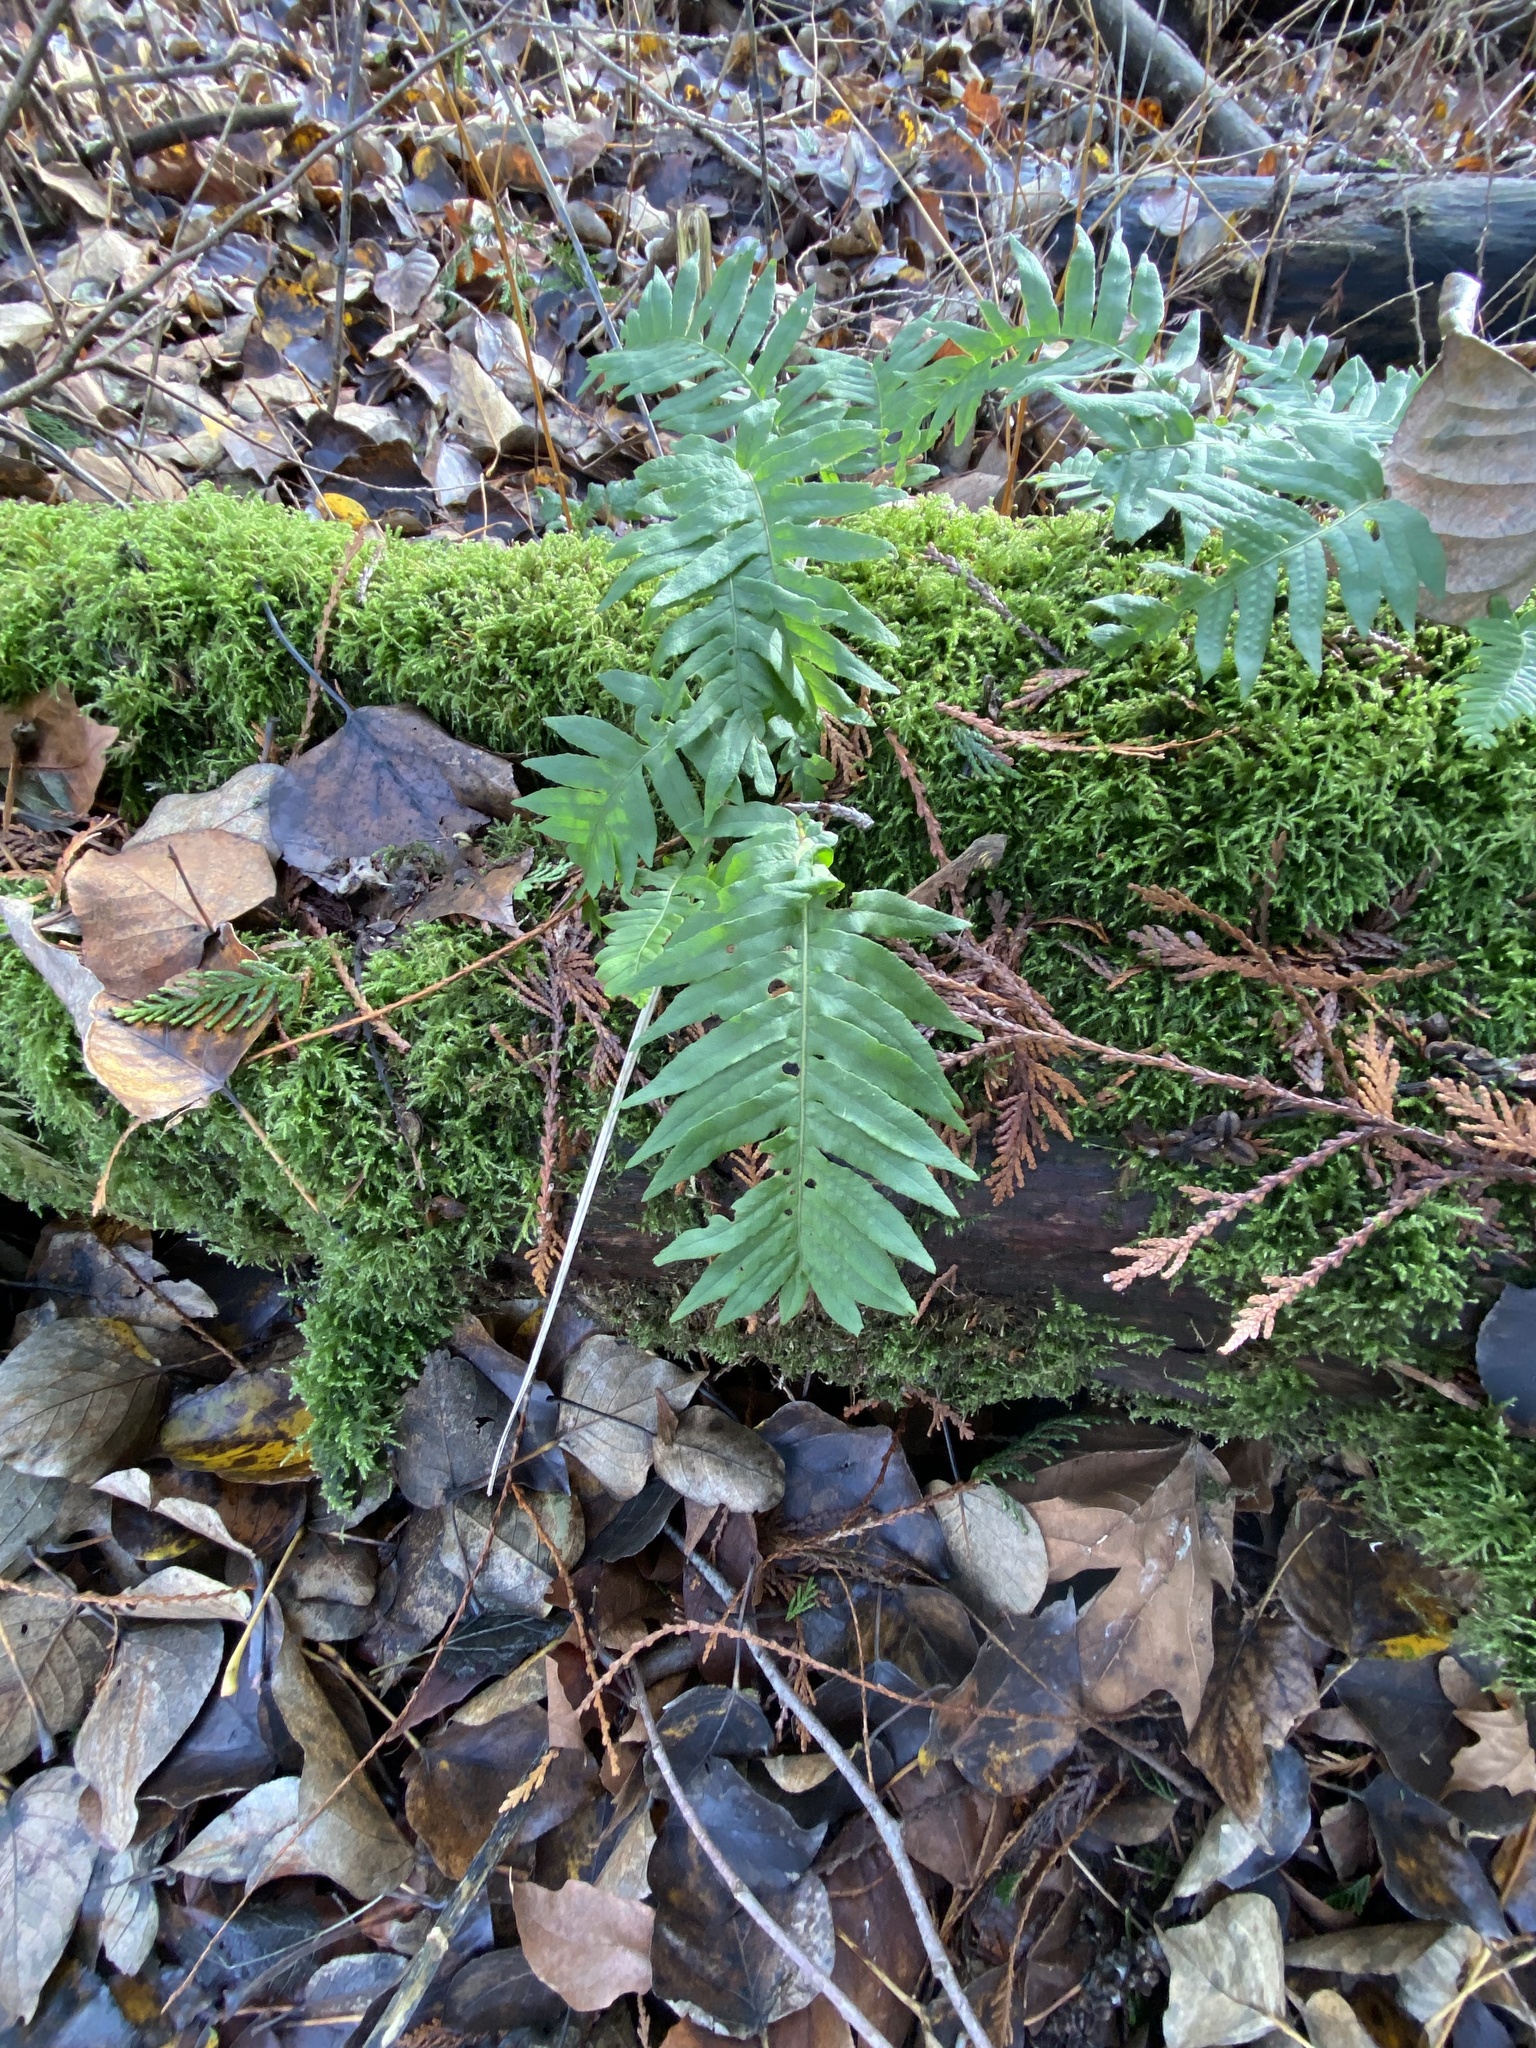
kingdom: Plantae
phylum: Tracheophyta
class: Polypodiopsida
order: Polypodiales
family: Polypodiaceae
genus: Polypodium
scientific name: Polypodium glycyrrhiza
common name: Licorice fern
